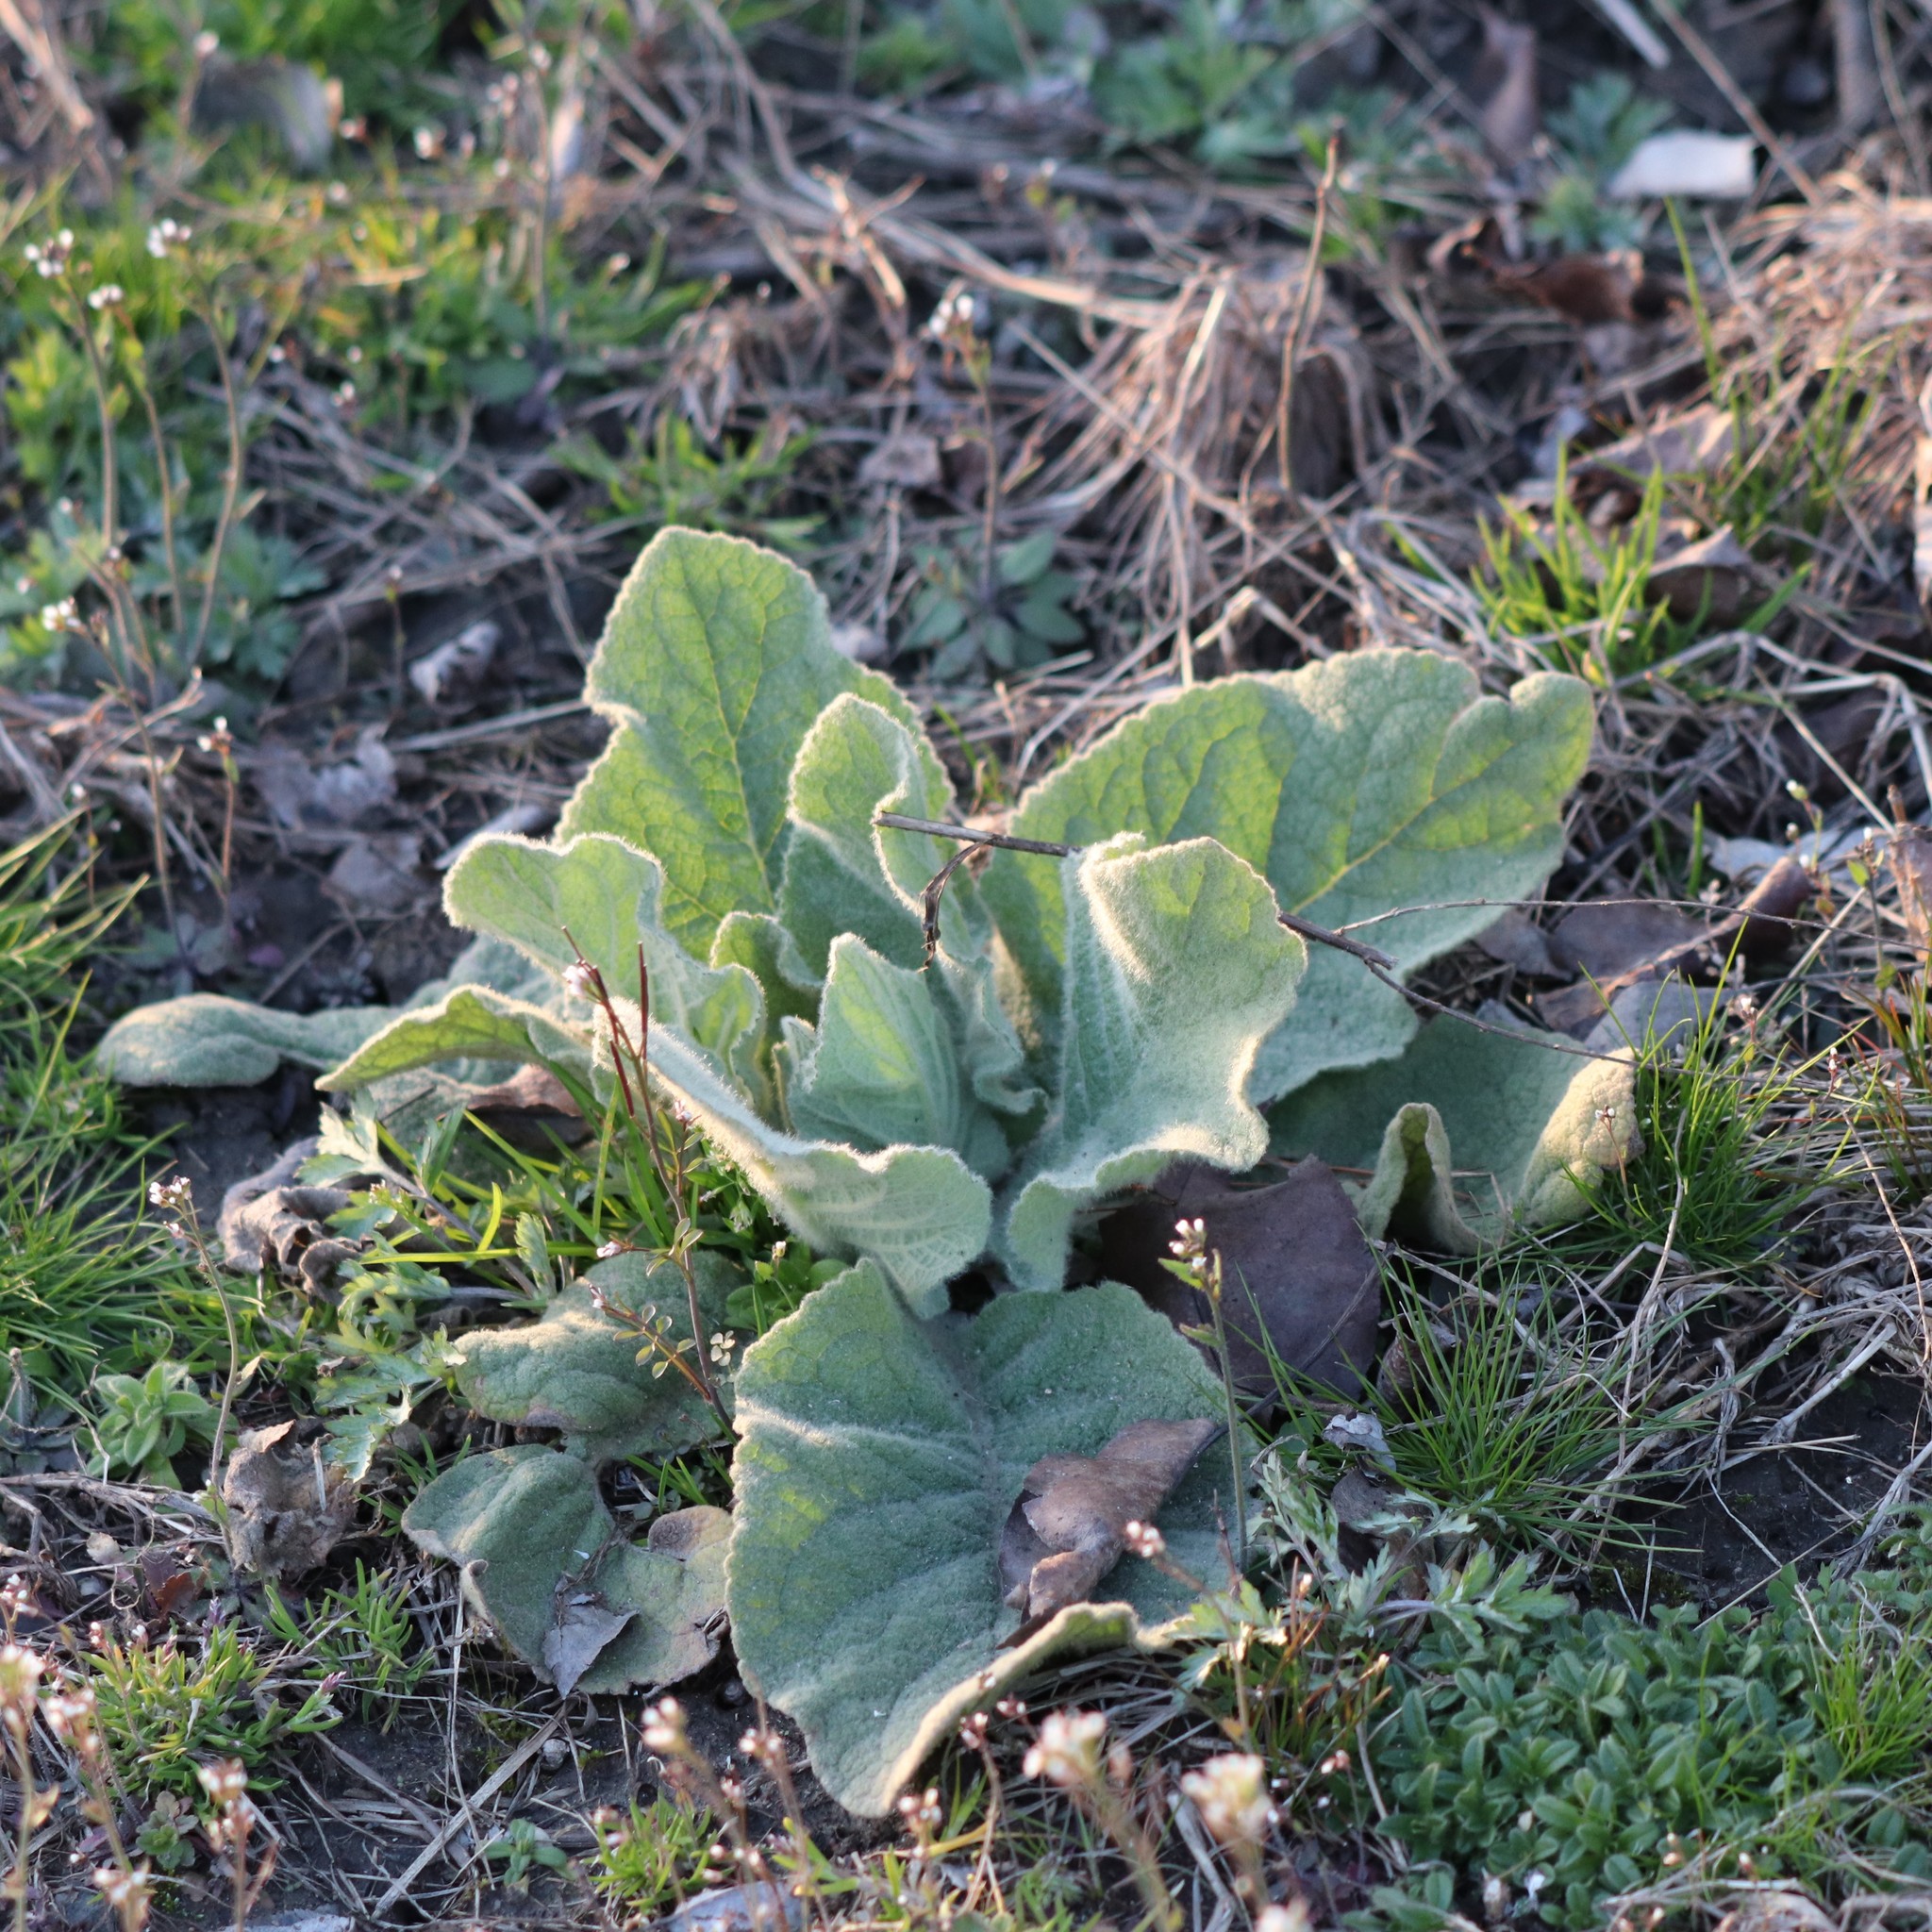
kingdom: Plantae
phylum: Tracheophyta
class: Magnoliopsida
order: Lamiales
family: Scrophulariaceae
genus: Verbascum
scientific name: Verbascum thapsus
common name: Common mullein
